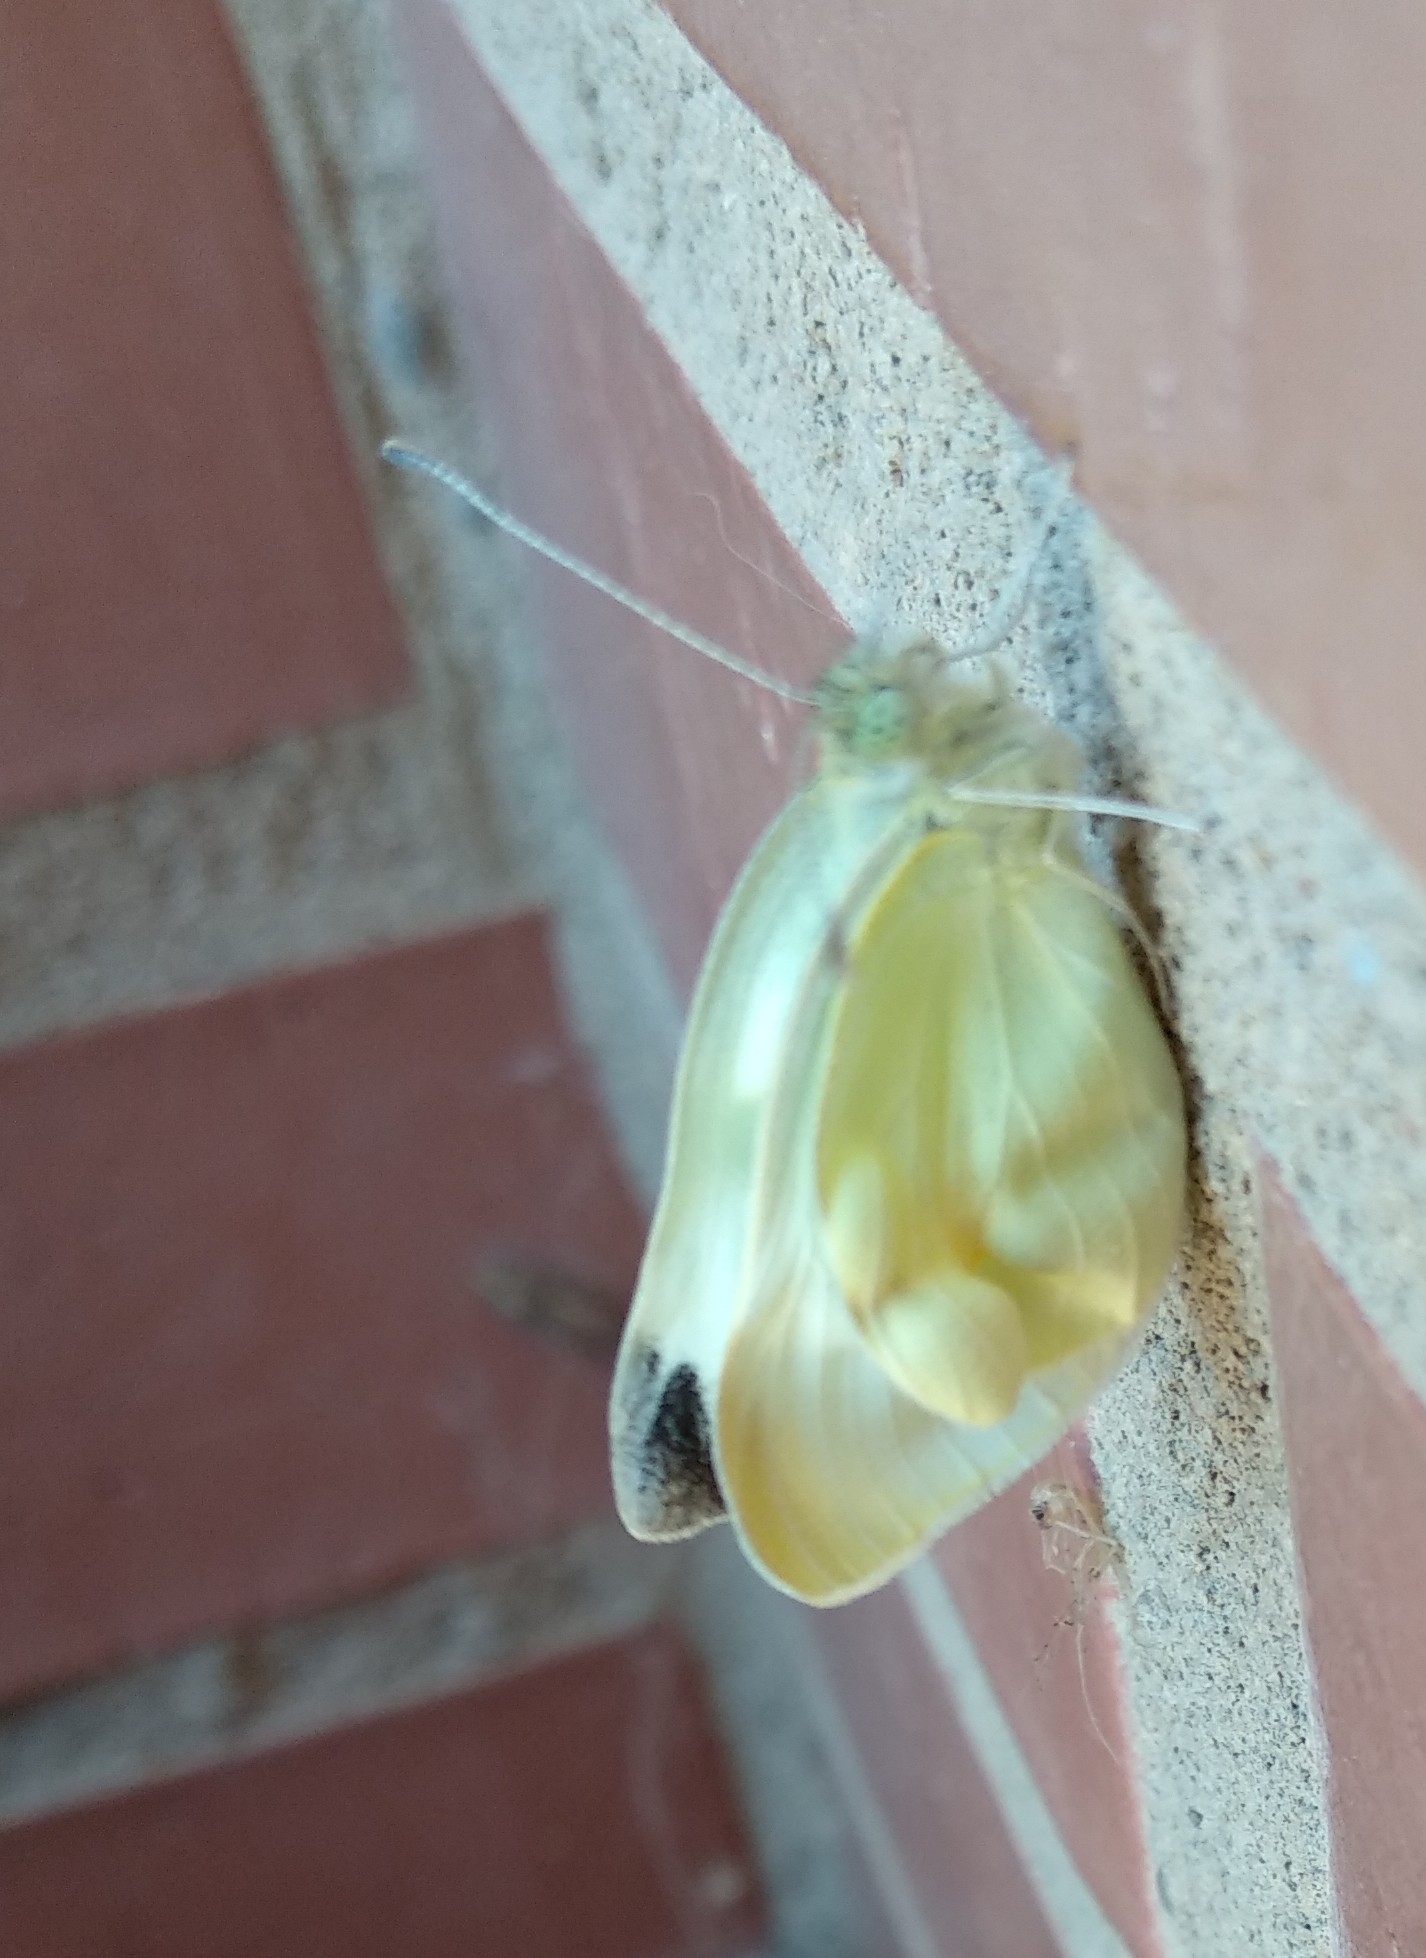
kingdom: Animalia
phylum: Arthropoda
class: Insecta
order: Lepidoptera
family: Pieridae
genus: Pieris
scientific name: Pieris rapae
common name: Small white
